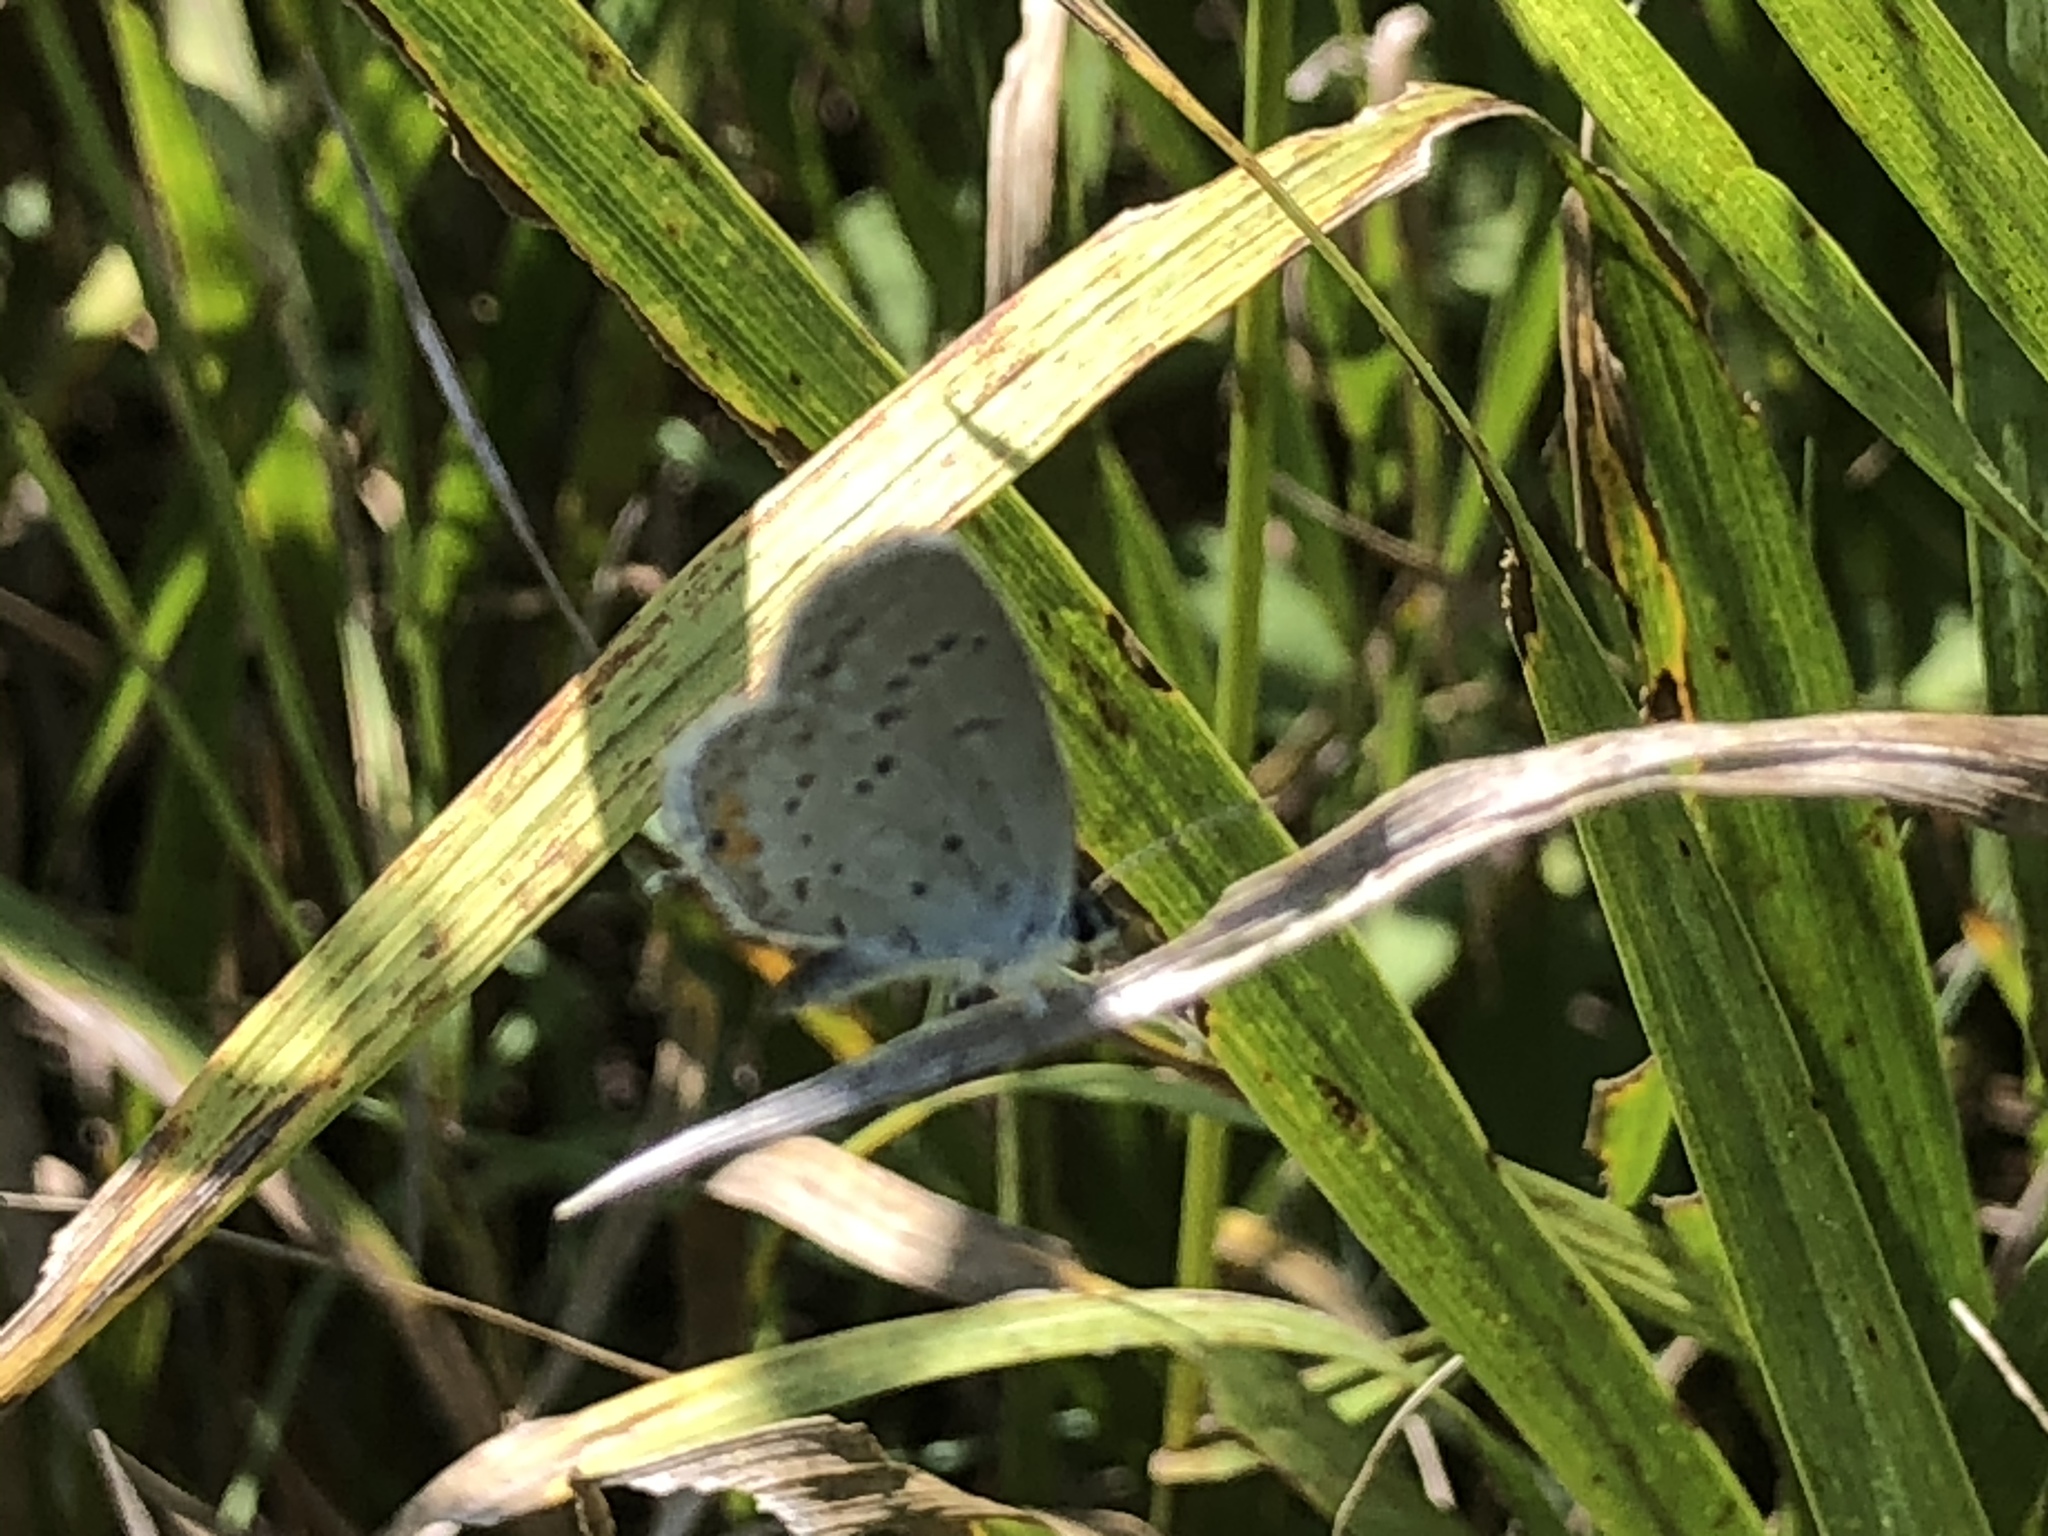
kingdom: Animalia
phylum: Arthropoda
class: Insecta
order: Lepidoptera
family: Lycaenidae
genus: Elkalyce
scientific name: Elkalyce comyntas
